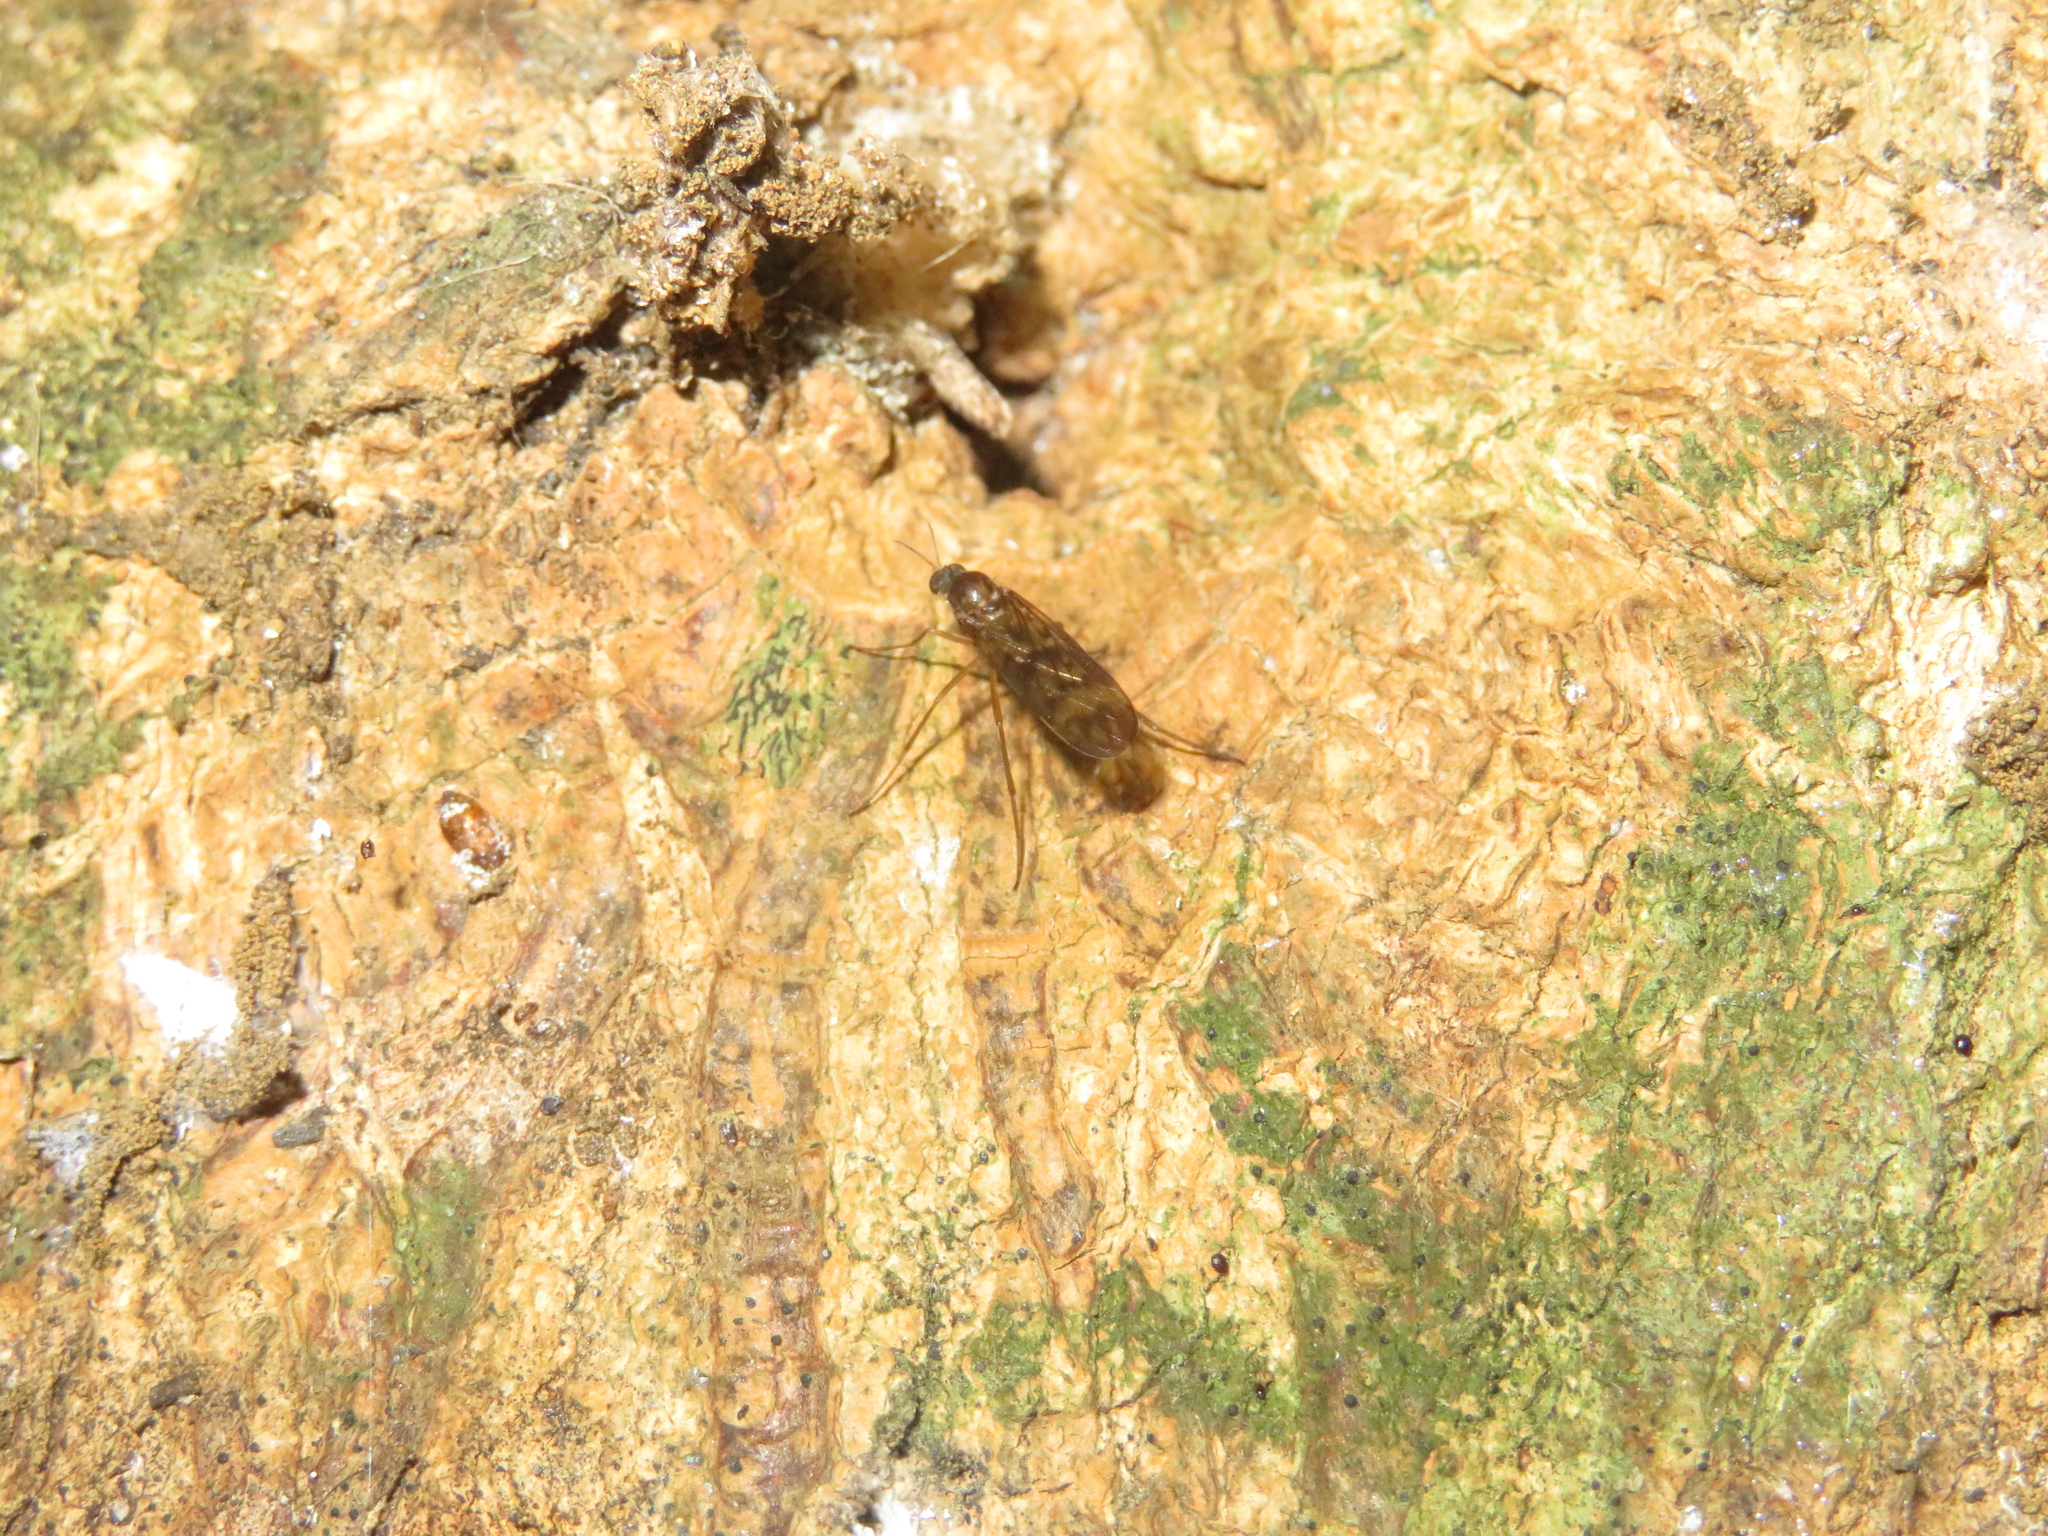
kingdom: Animalia
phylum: Arthropoda
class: Insecta
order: Diptera
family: Anisopodidae
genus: Sylvicola
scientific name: Sylvicola neozelandicus
